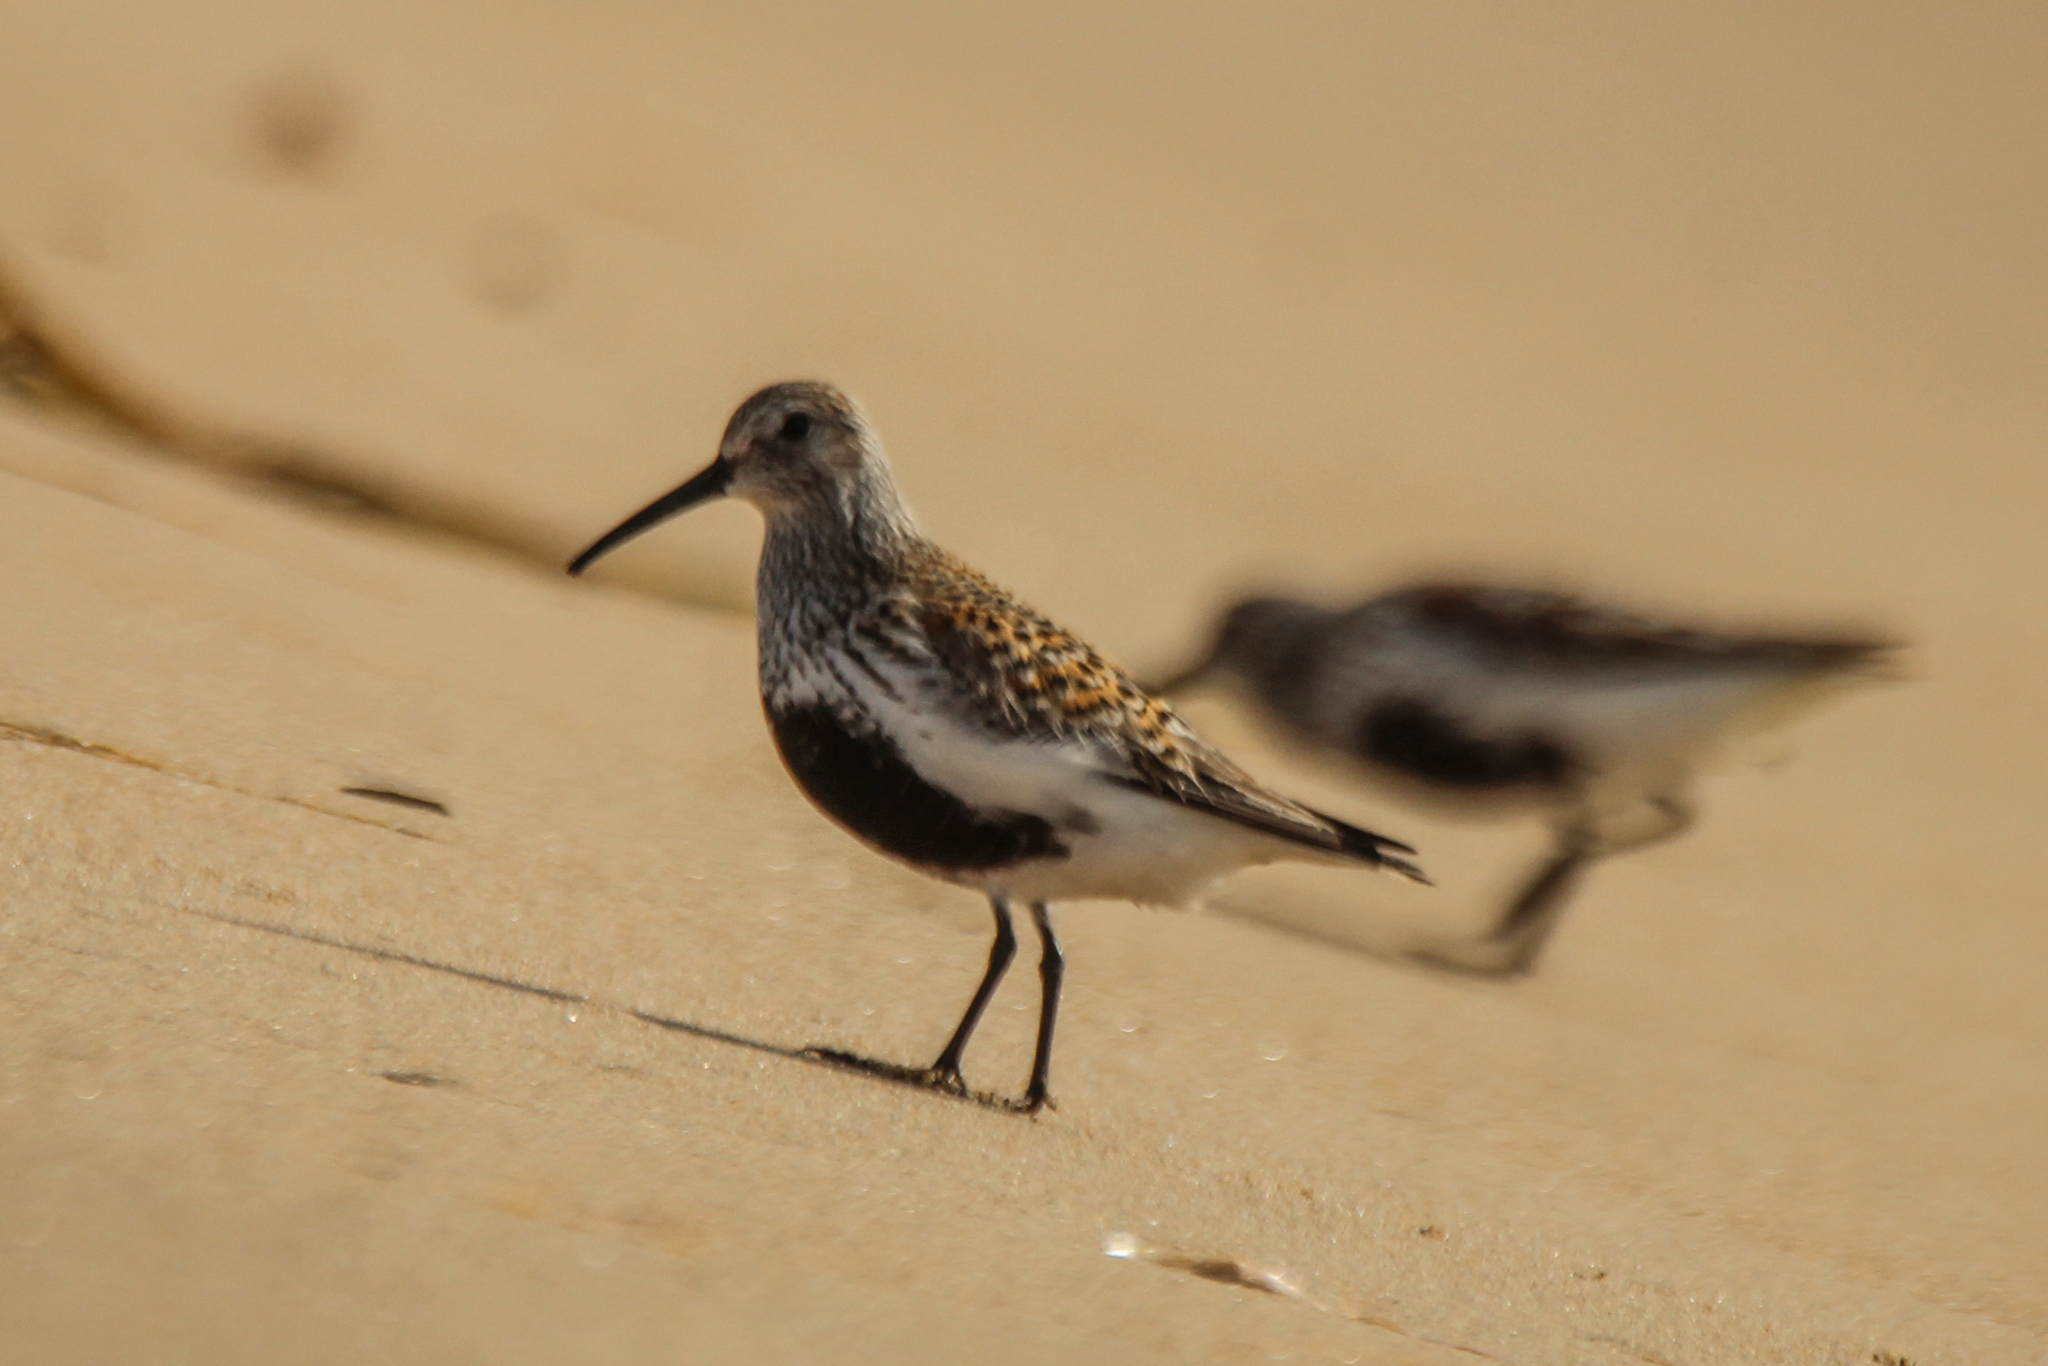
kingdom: Animalia
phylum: Chordata
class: Aves
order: Charadriiformes
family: Scolopacidae
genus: Calidris
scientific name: Calidris alpina
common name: Dunlin
